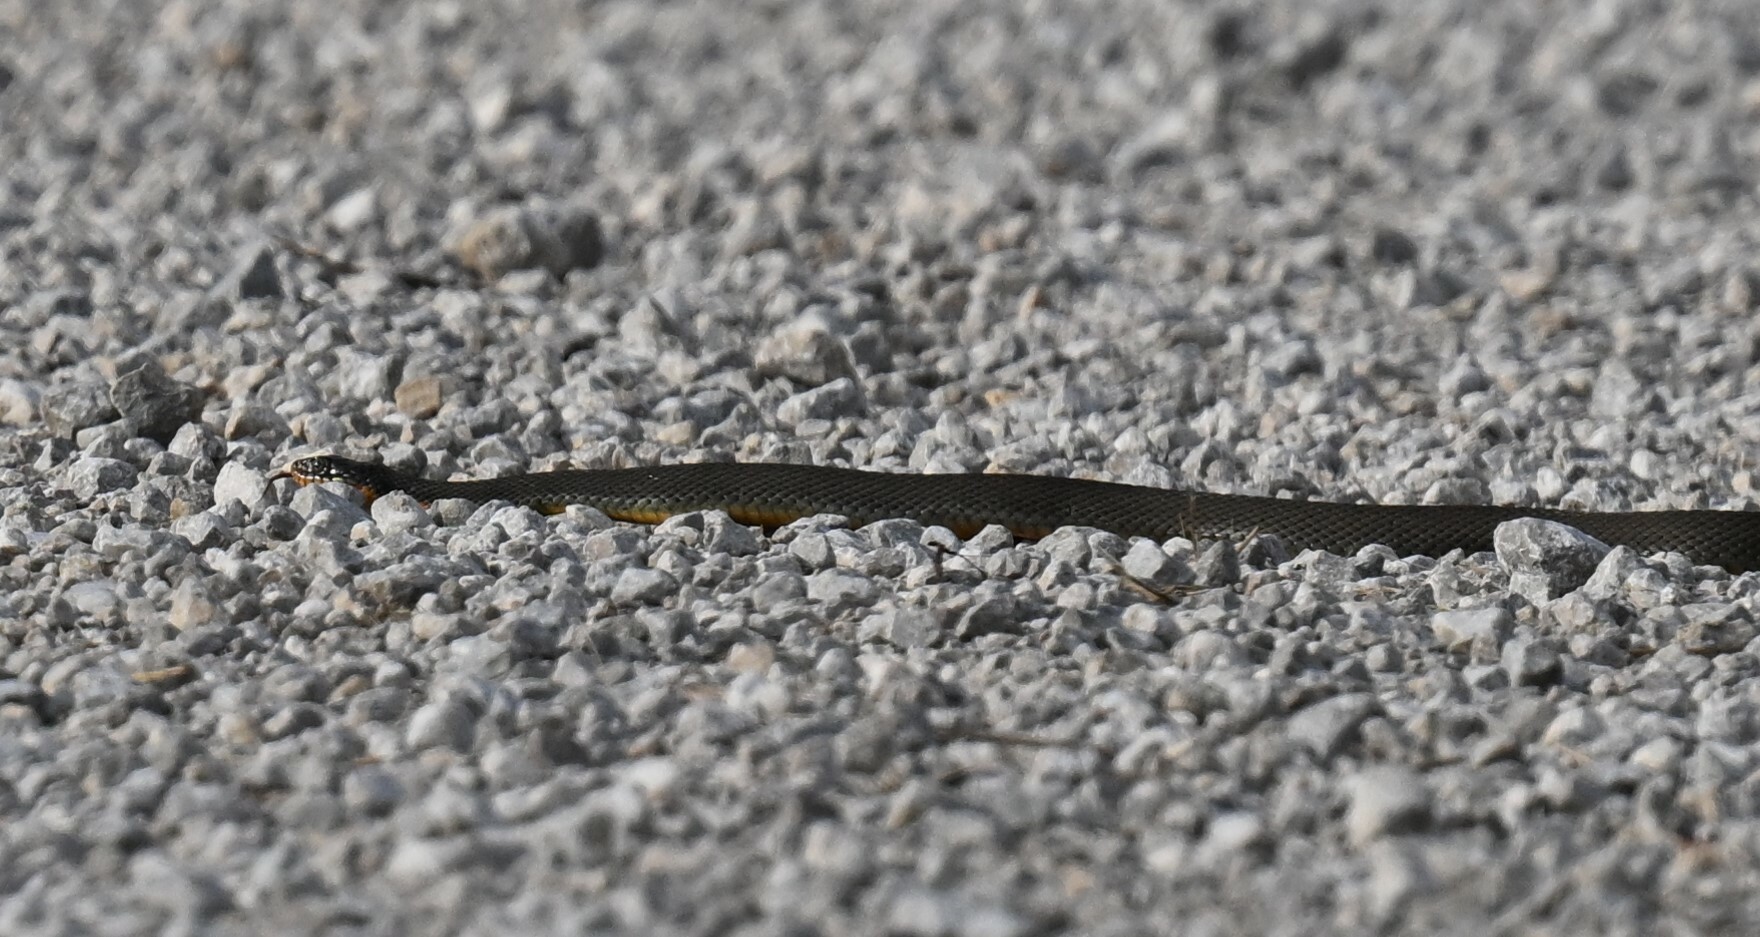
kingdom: Animalia
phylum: Chordata
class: Squamata
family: Colubridae
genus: Nerodia
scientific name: Nerodia erythrogaster
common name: Plainbelly water snake
